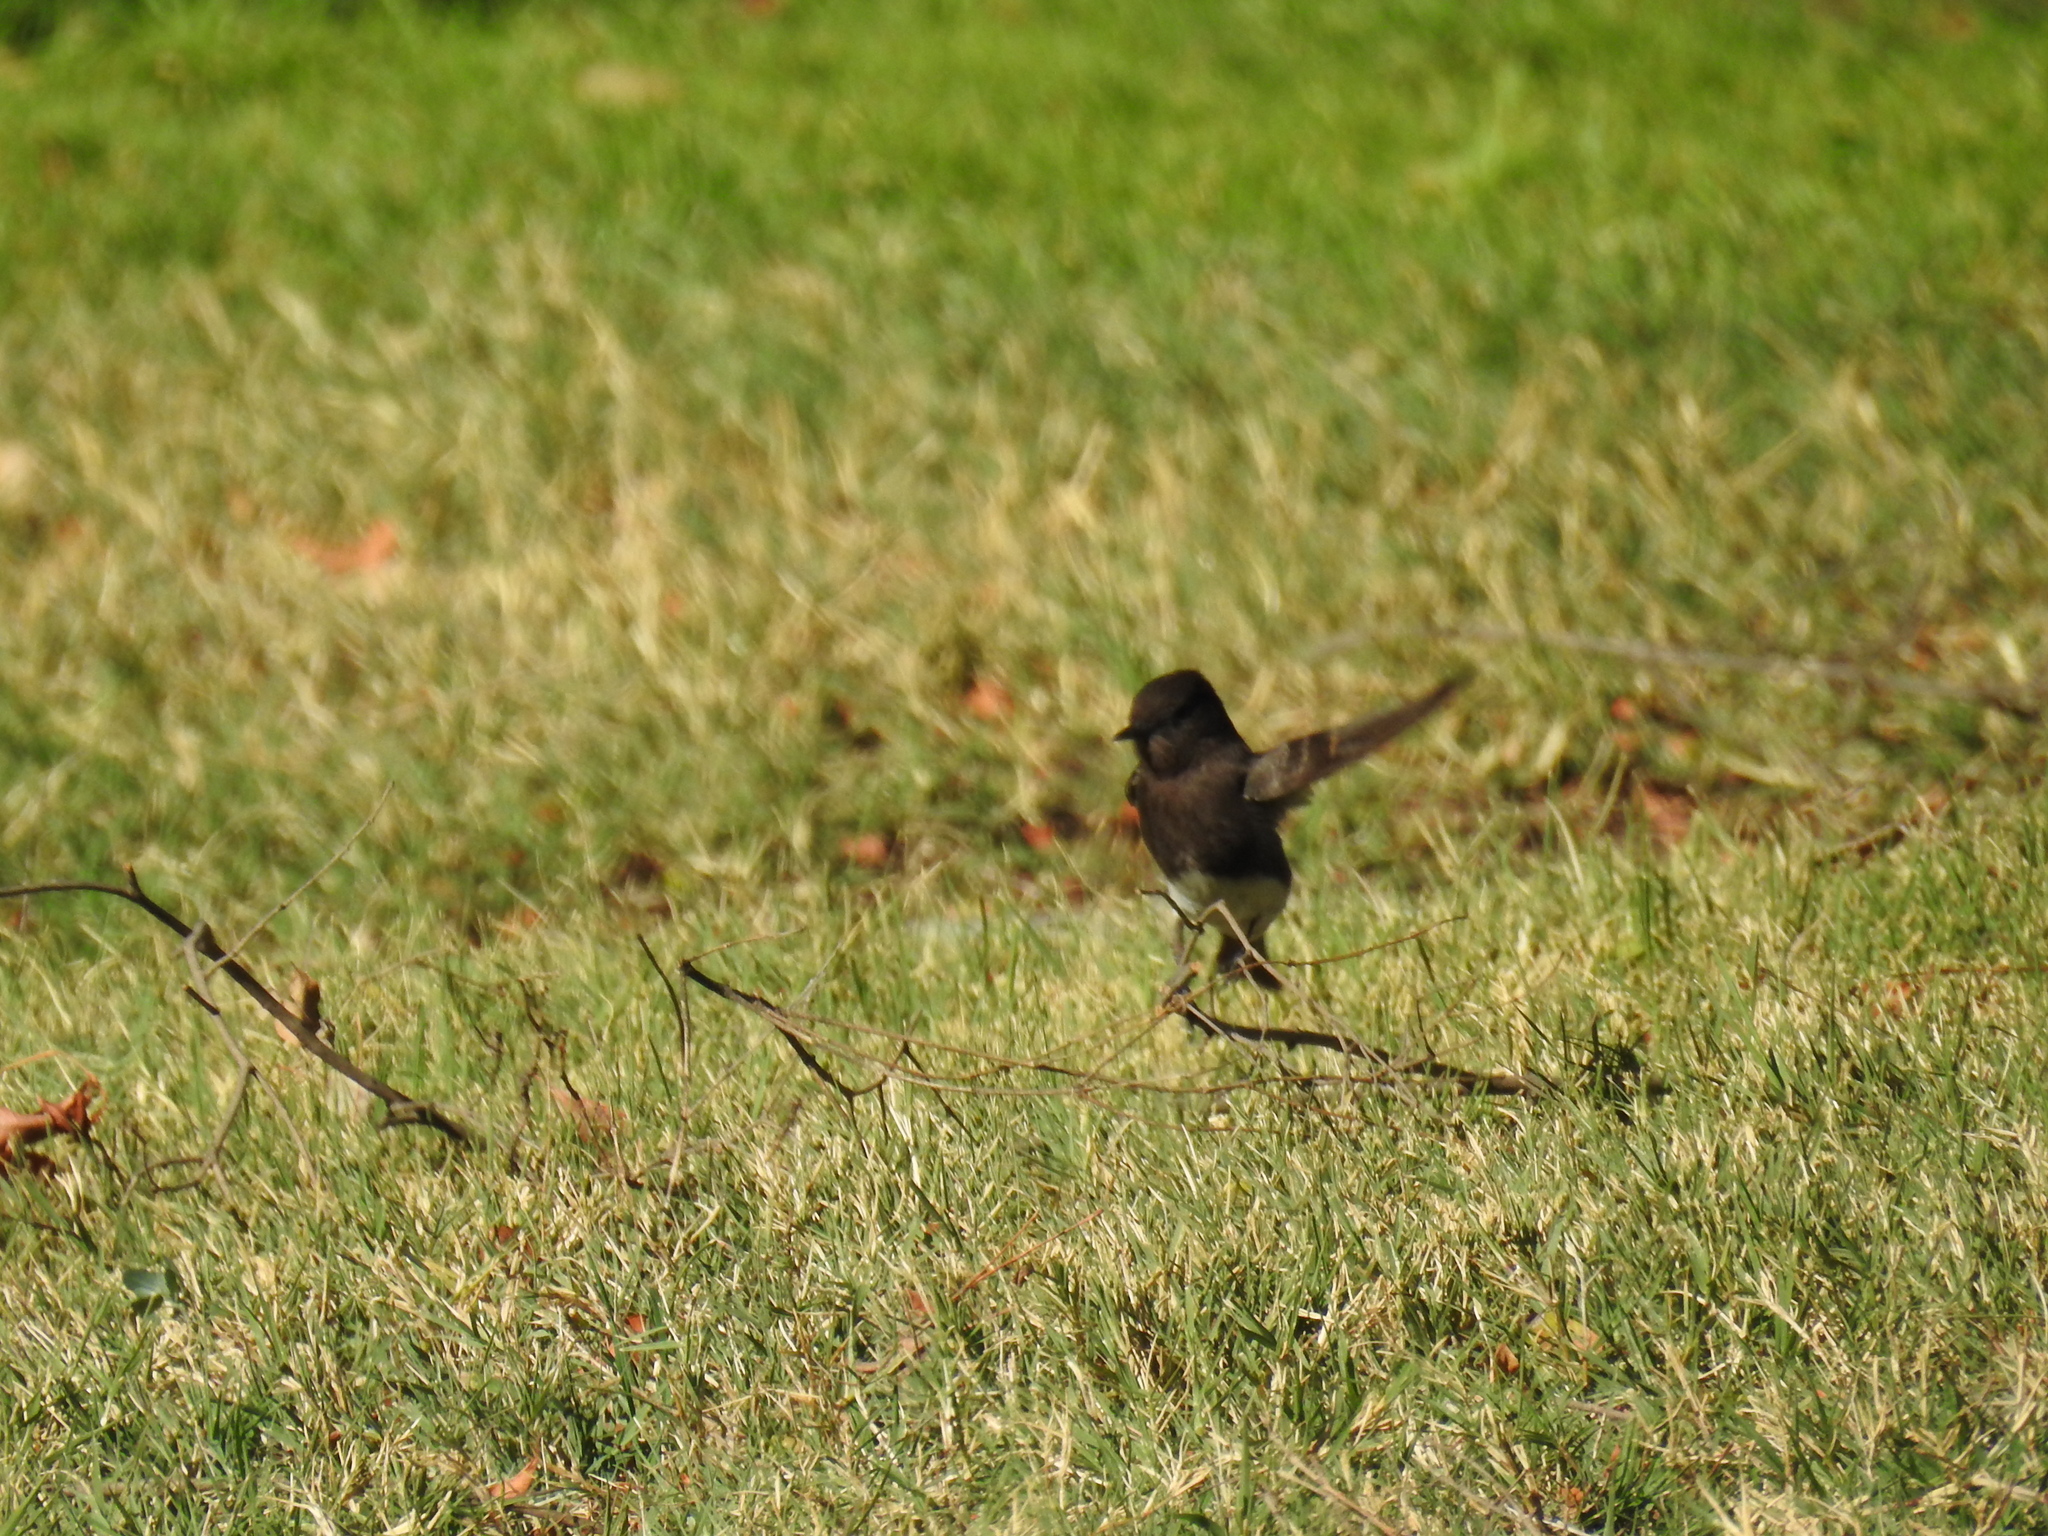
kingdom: Animalia
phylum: Chordata
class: Aves
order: Passeriformes
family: Tyrannidae
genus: Sayornis
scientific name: Sayornis nigricans
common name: Black phoebe
